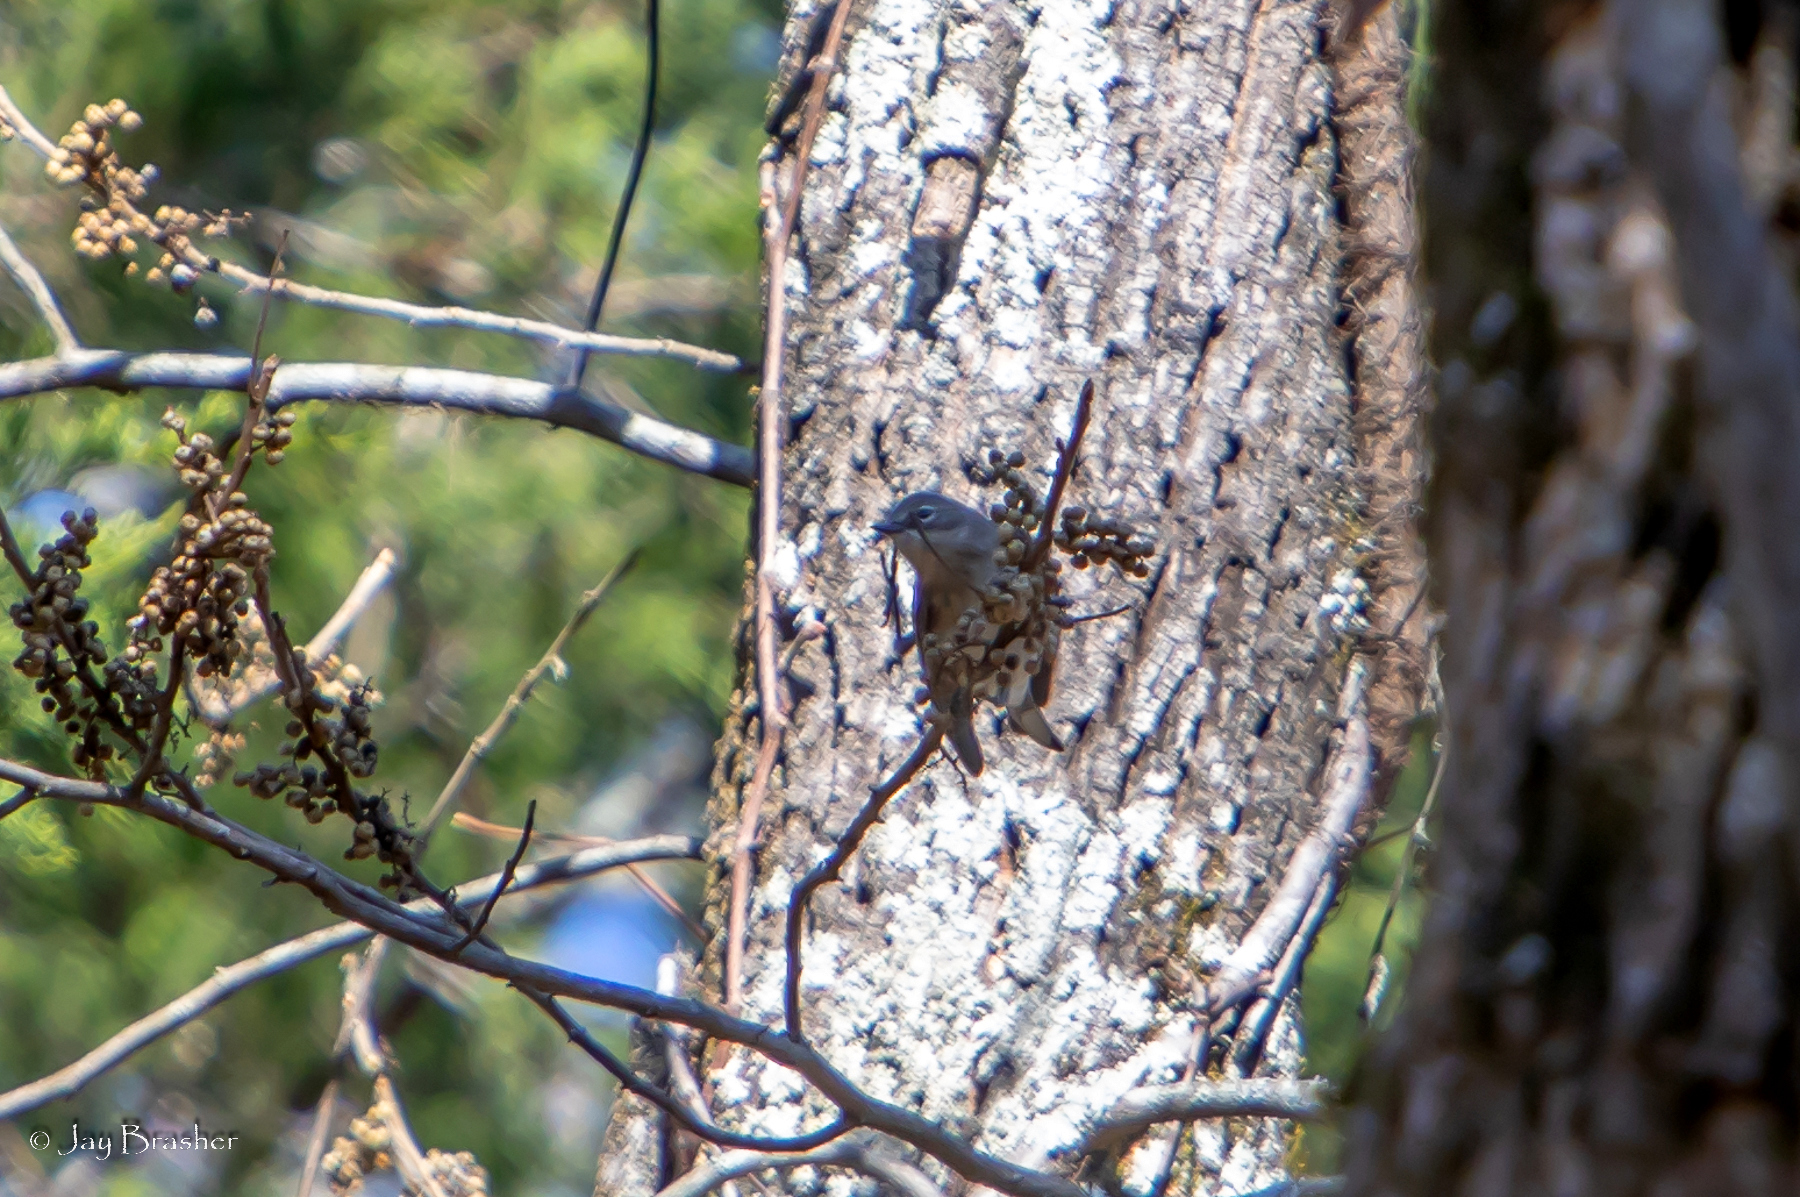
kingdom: Animalia
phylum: Chordata
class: Aves
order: Passeriformes
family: Parulidae
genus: Setophaga
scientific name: Setophaga coronata
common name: Myrtle warbler
